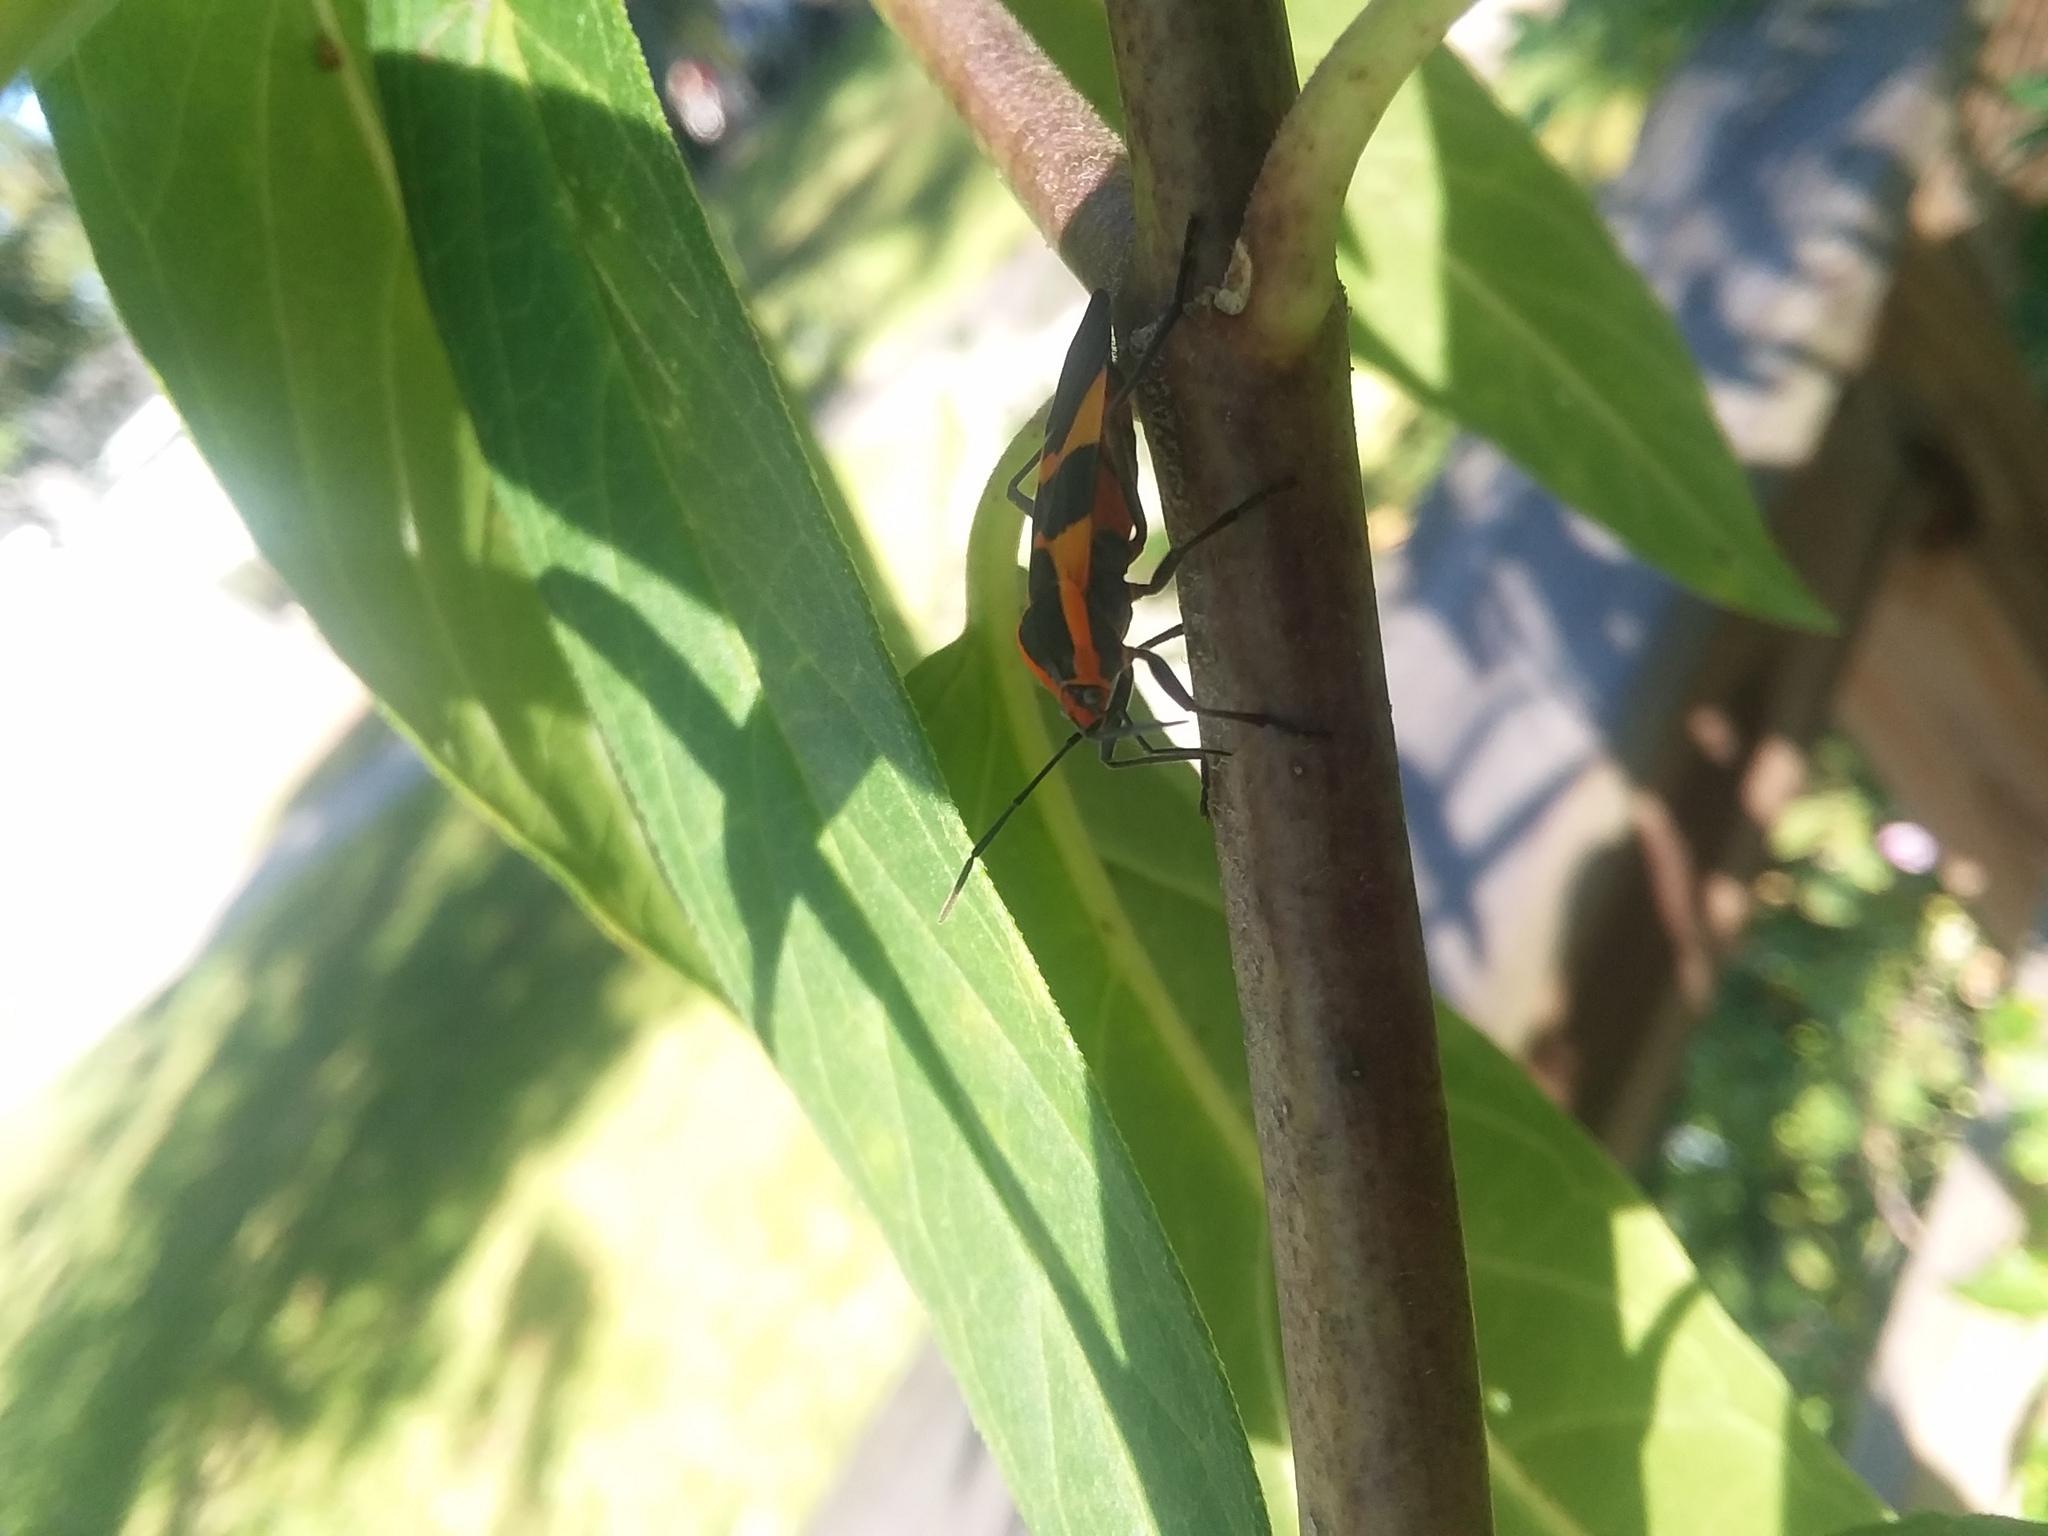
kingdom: Animalia
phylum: Arthropoda
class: Insecta
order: Hemiptera
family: Lygaeidae
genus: Oncopeltus
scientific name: Oncopeltus fasciatus
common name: Large milkweed bug
